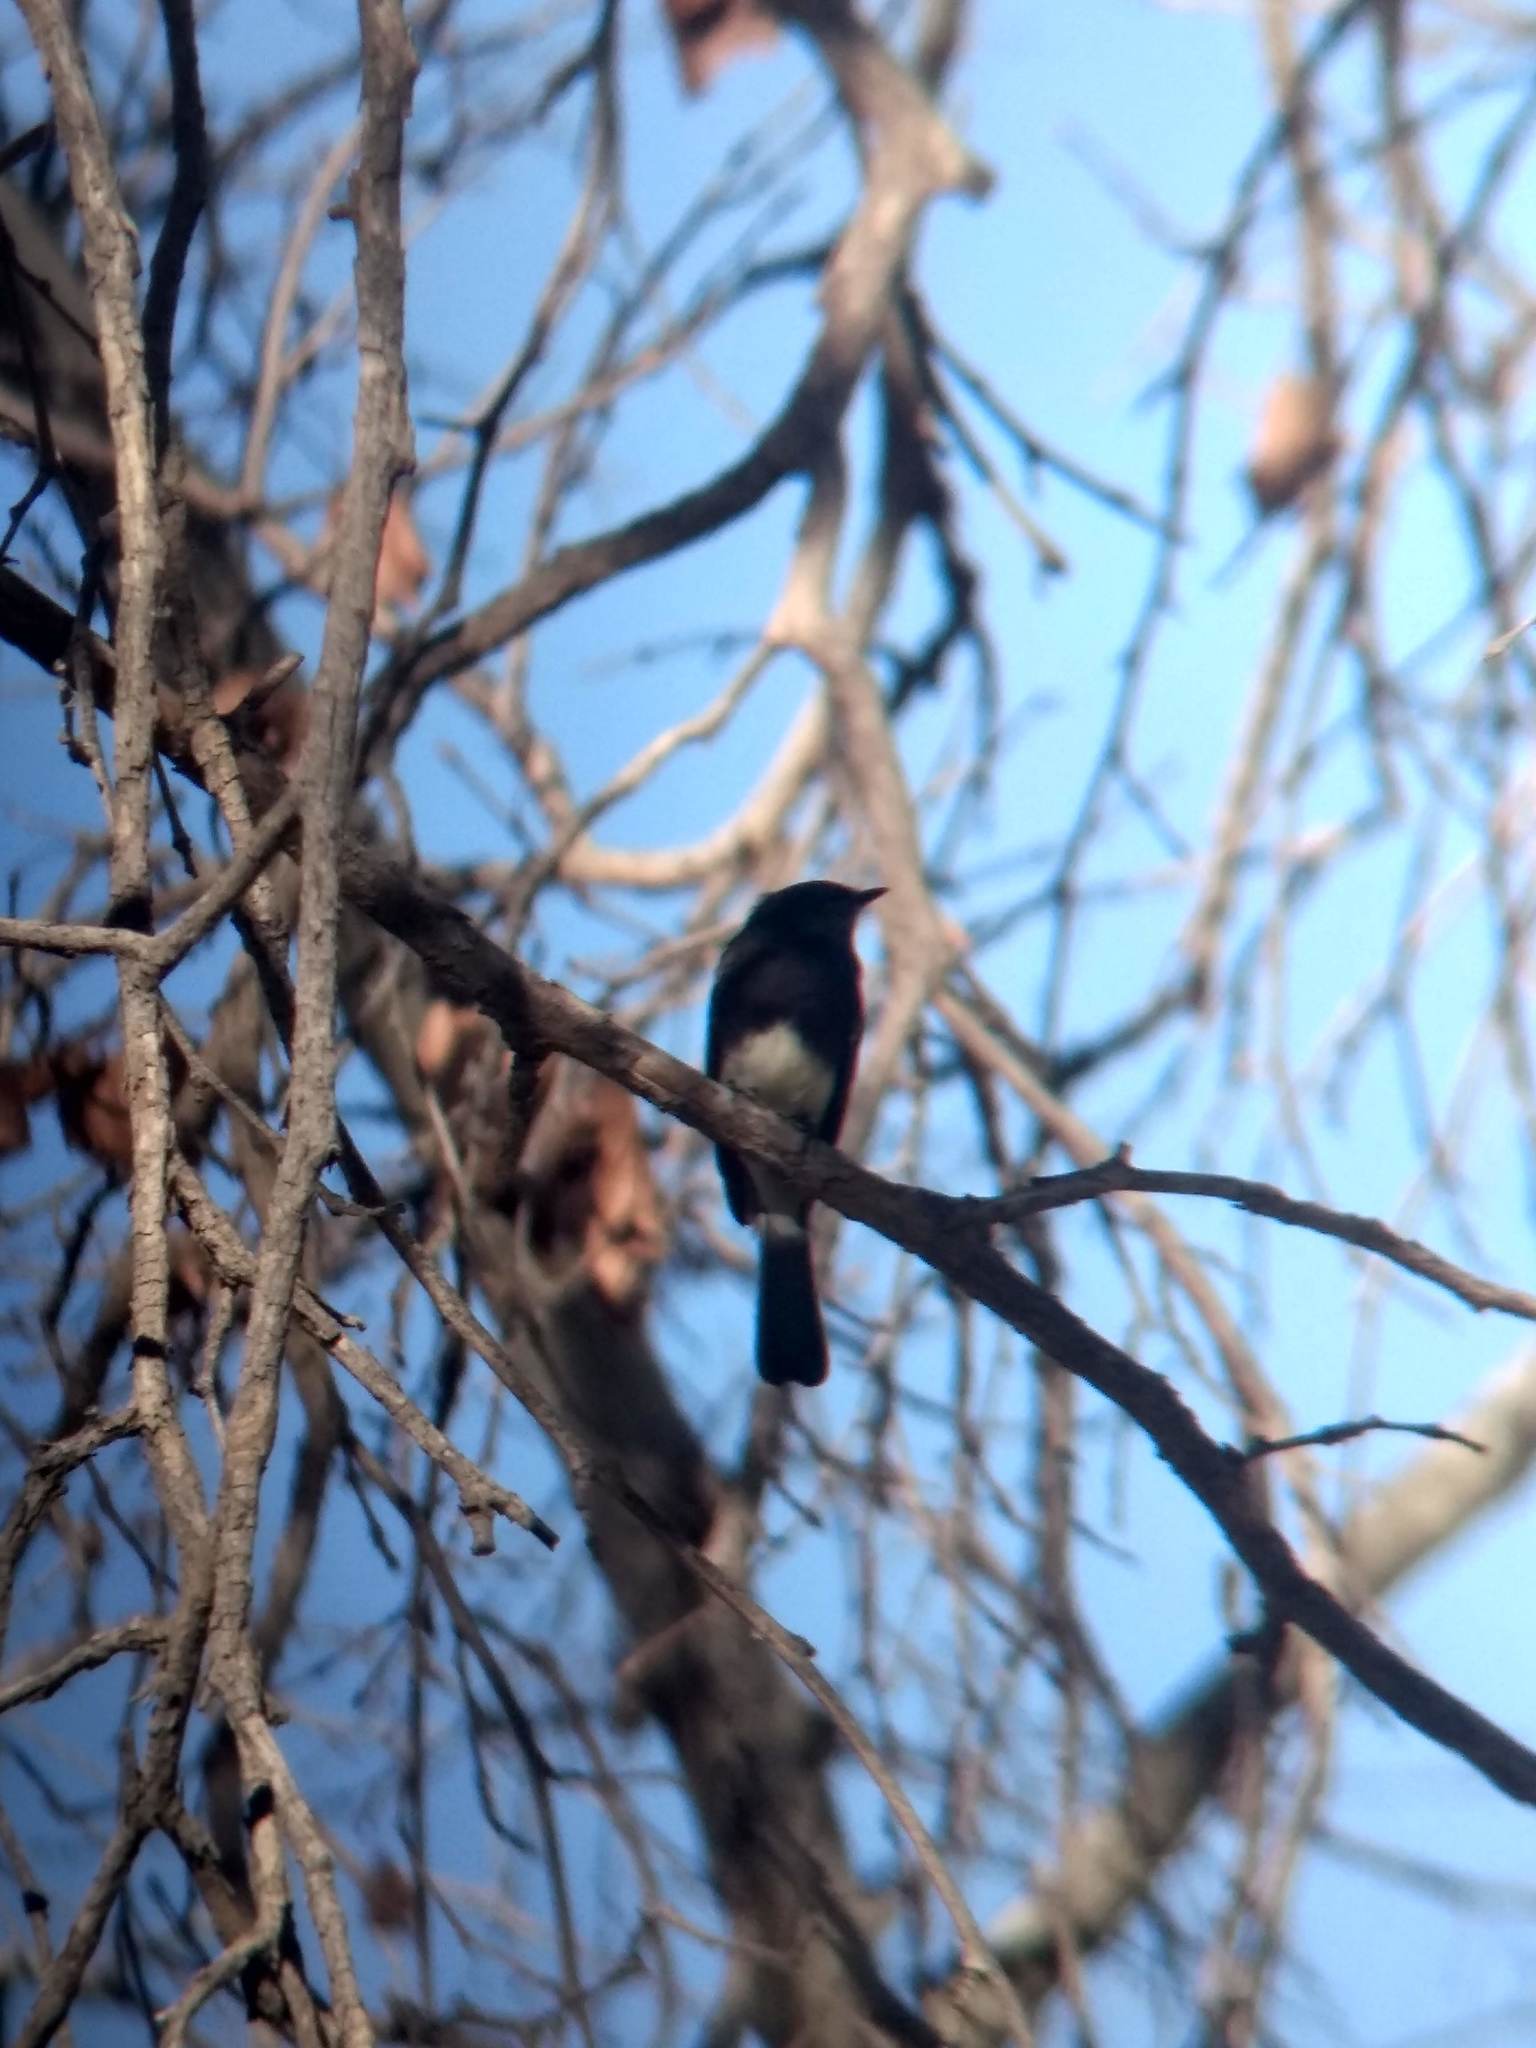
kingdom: Animalia
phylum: Chordata
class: Aves
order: Passeriformes
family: Tyrannidae
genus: Sayornis
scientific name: Sayornis nigricans
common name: Black phoebe
